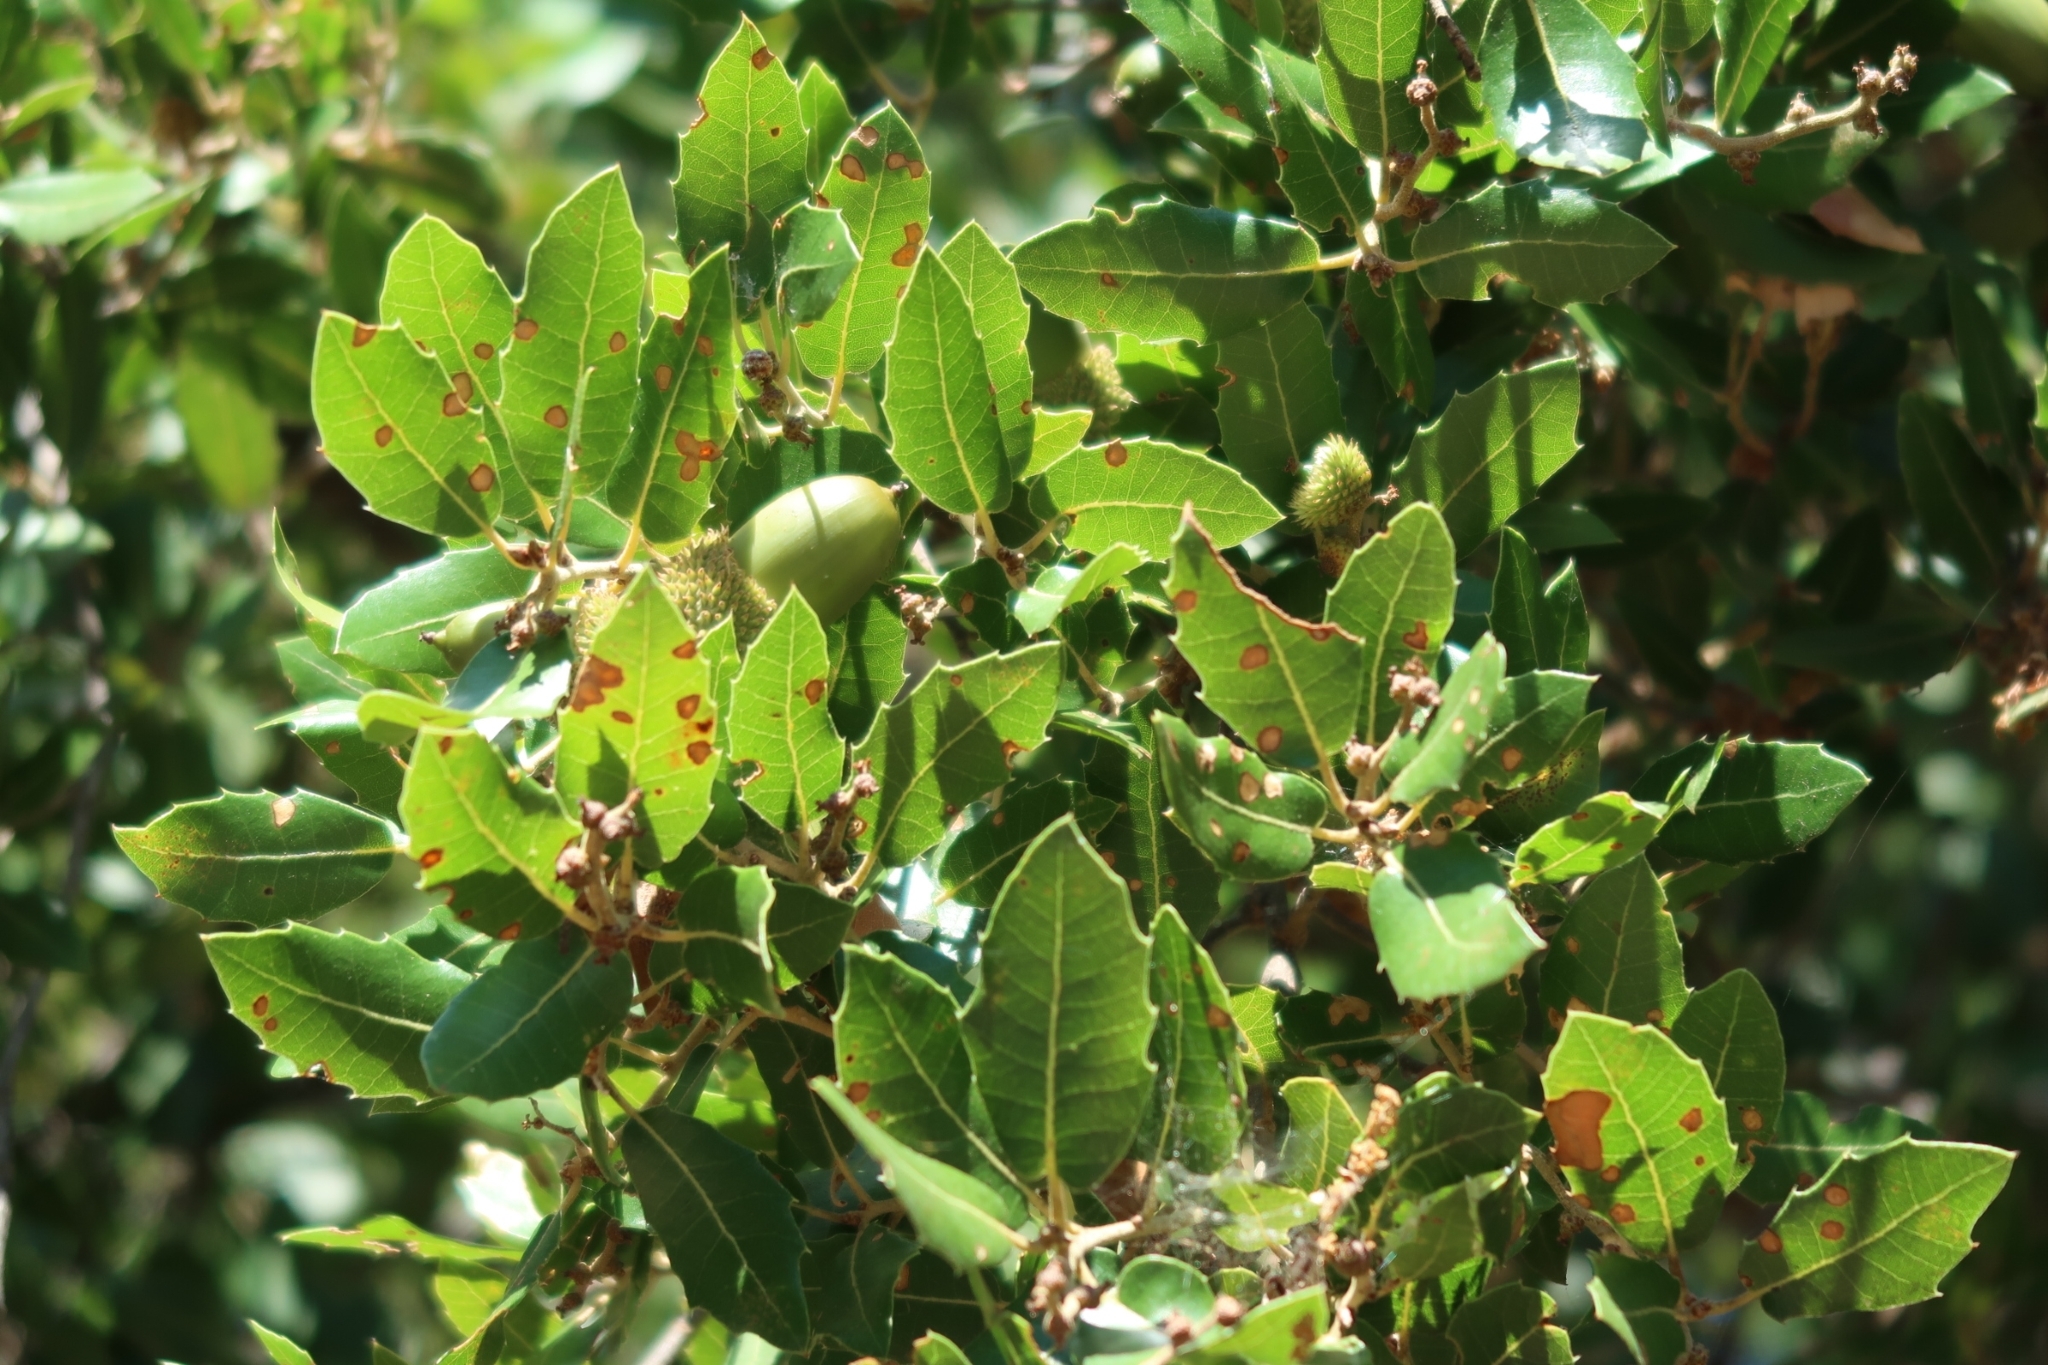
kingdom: Plantae
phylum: Tracheophyta
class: Magnoliopsida
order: Fagales
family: Fagaceae
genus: Quercus
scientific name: Quercus coccifera
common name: Kermes oak
